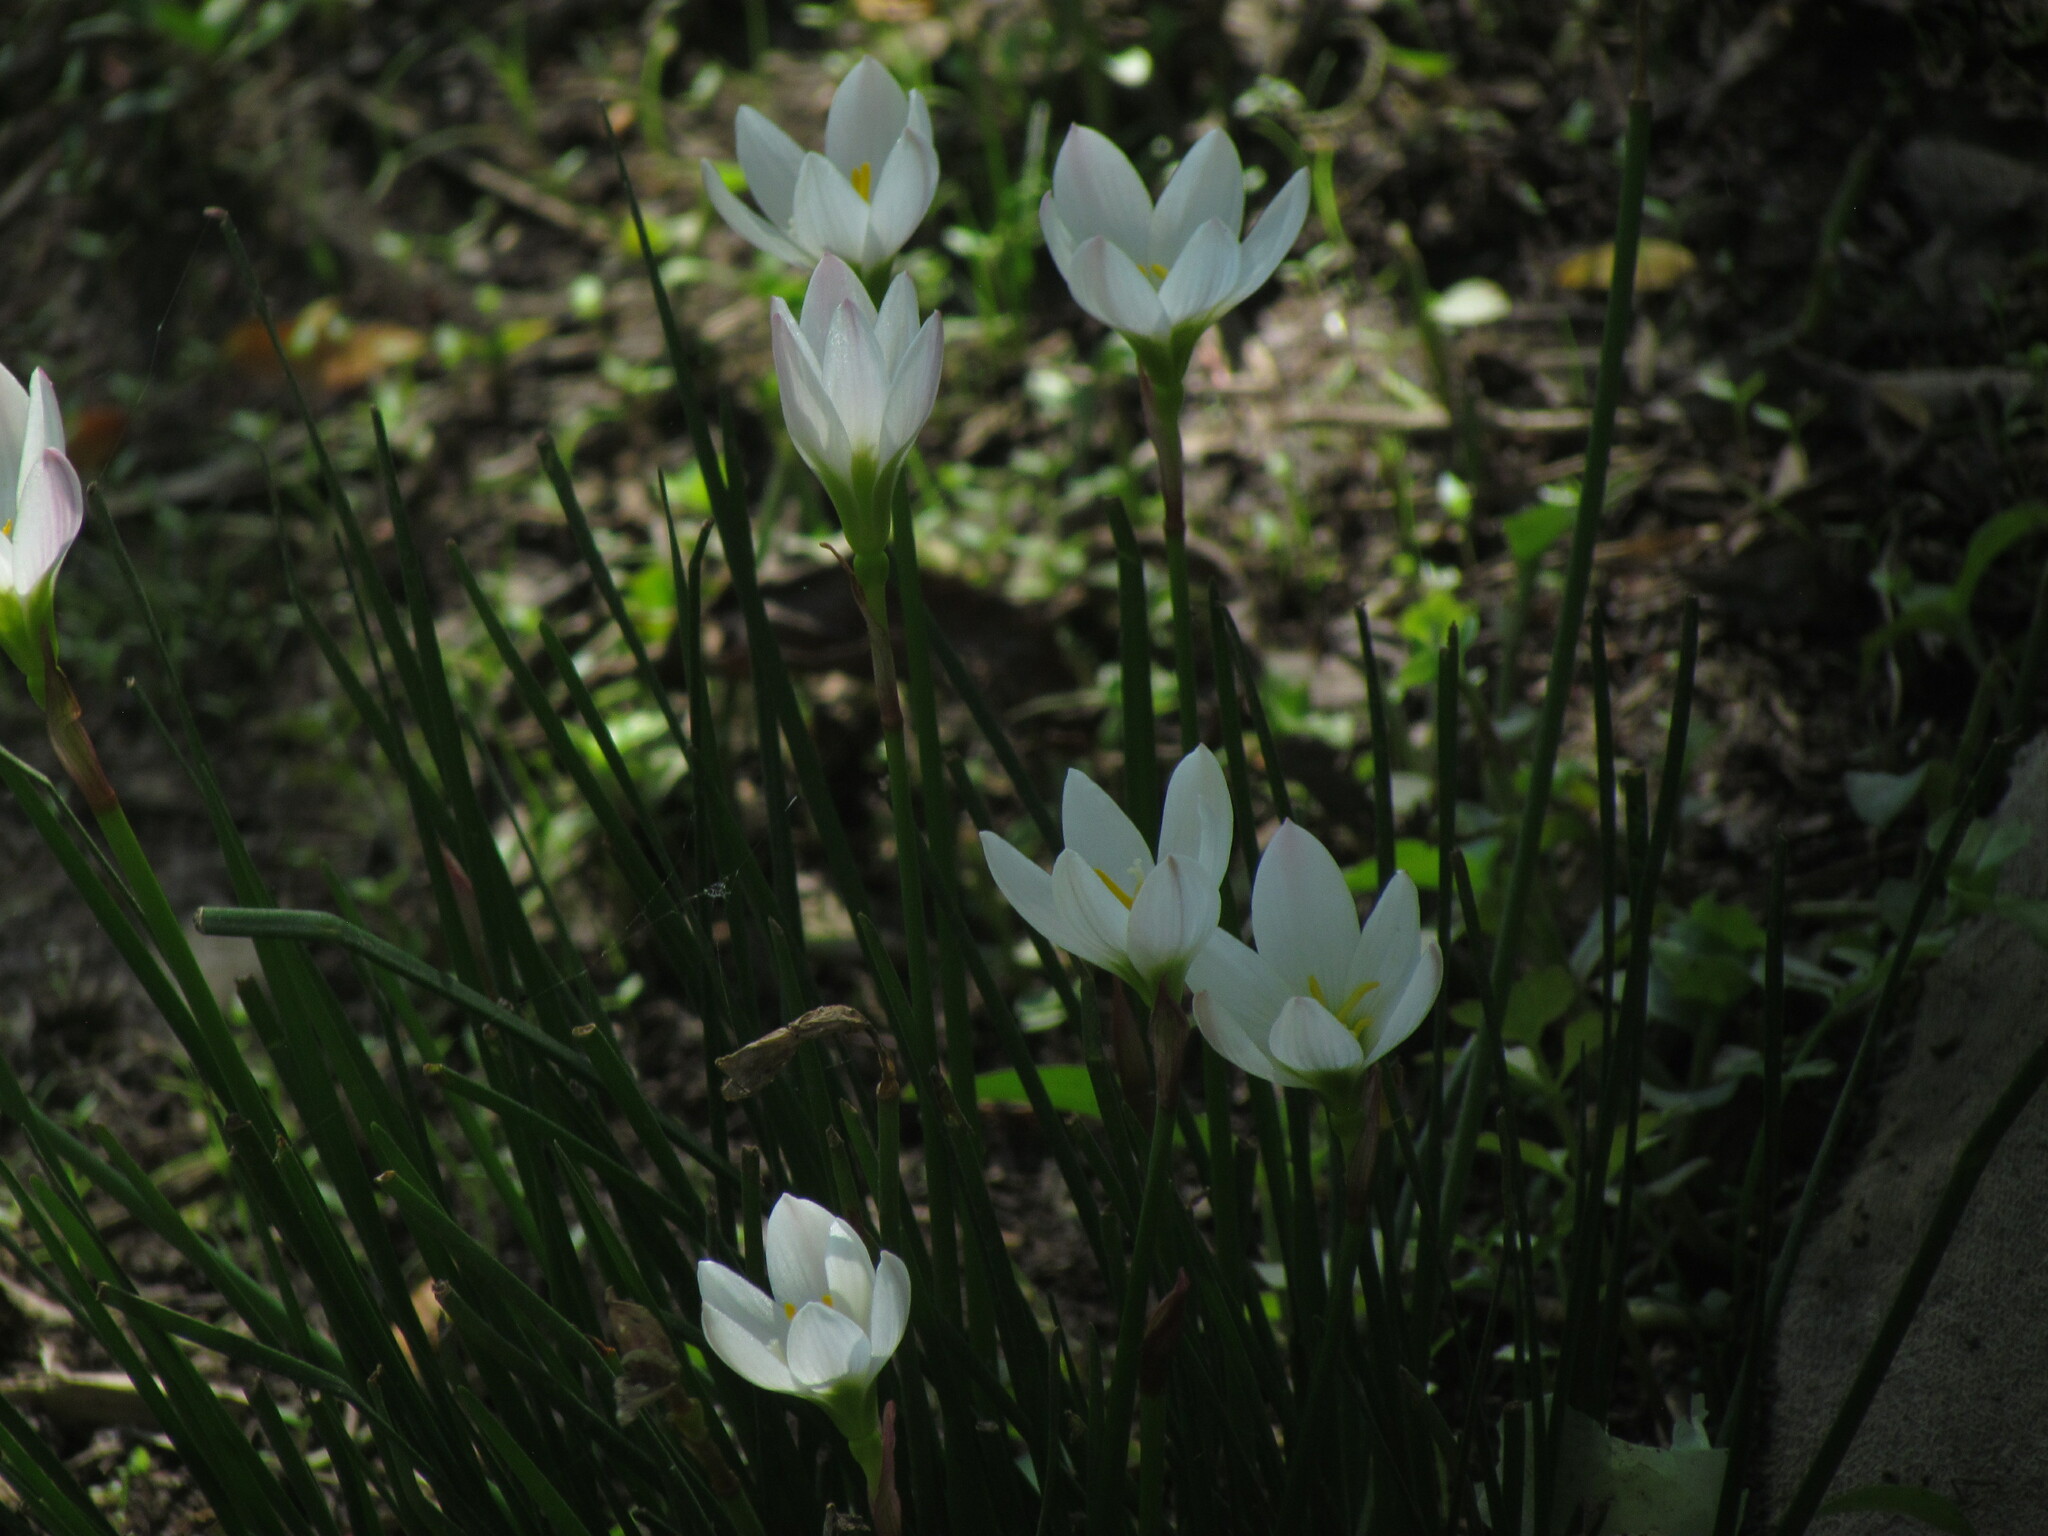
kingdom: Plantae
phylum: Tracheophyta
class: Liliopsida
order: Asparagales
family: Amaryllidaceae
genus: Zephyranthes
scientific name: Zephyranthes candida
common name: Autumn zephyrlily
